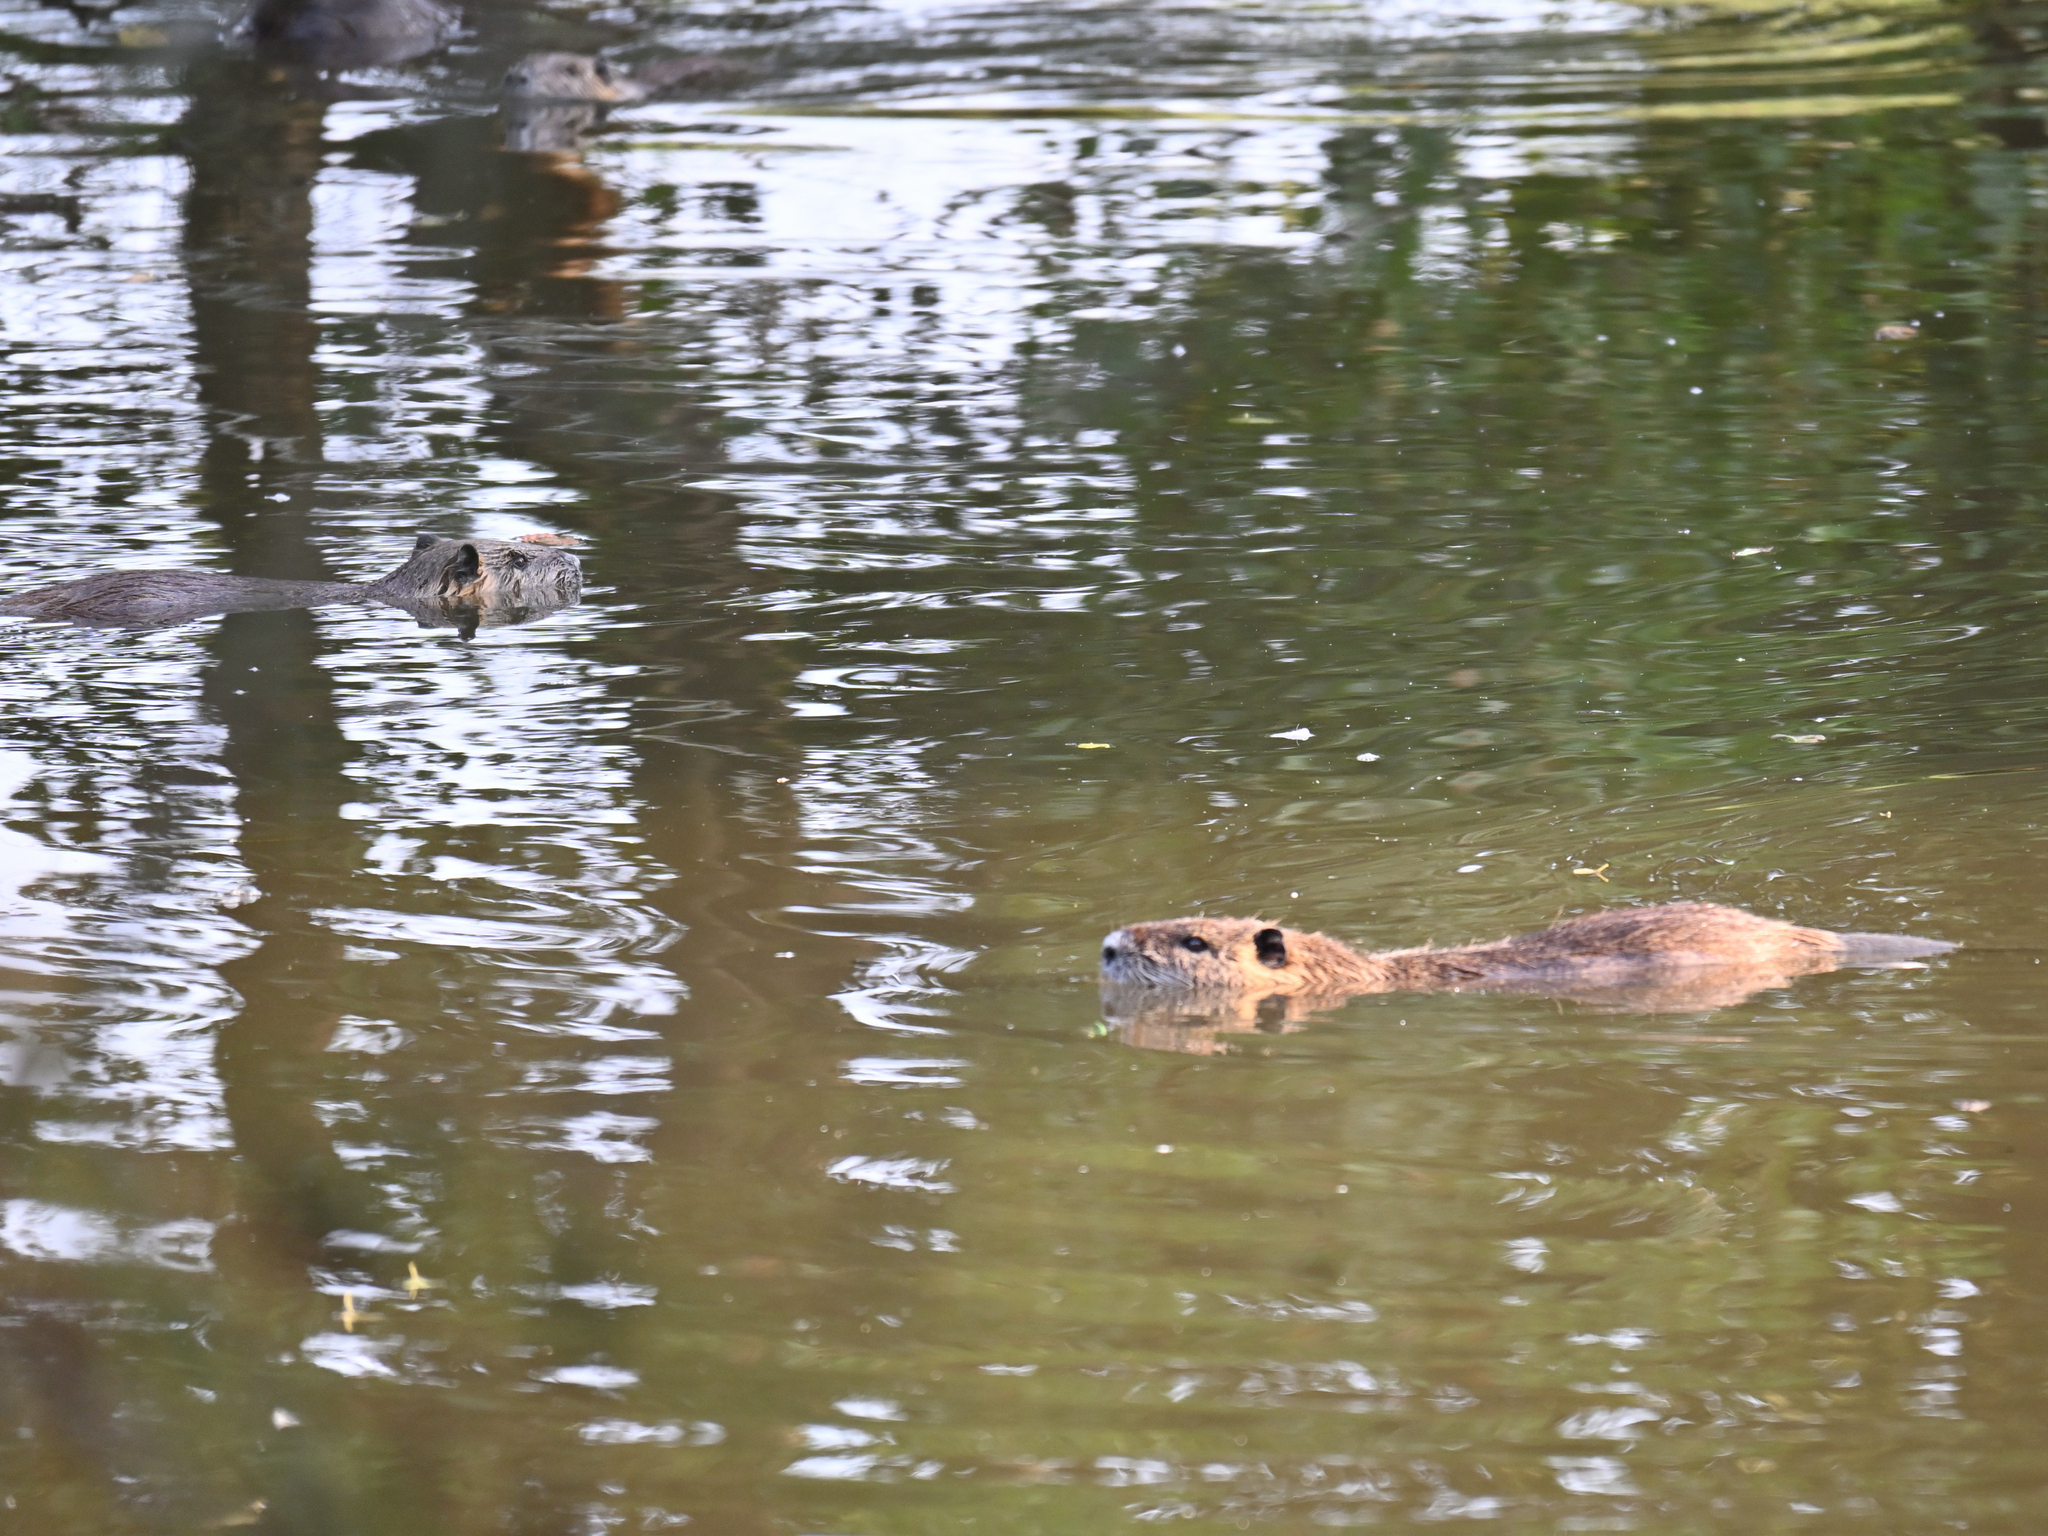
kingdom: Animalia
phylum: Chordata
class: Mammalia
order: Rodentia
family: Myocastoridae
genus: Myocastor
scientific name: Myocastor coypus
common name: Coypu
